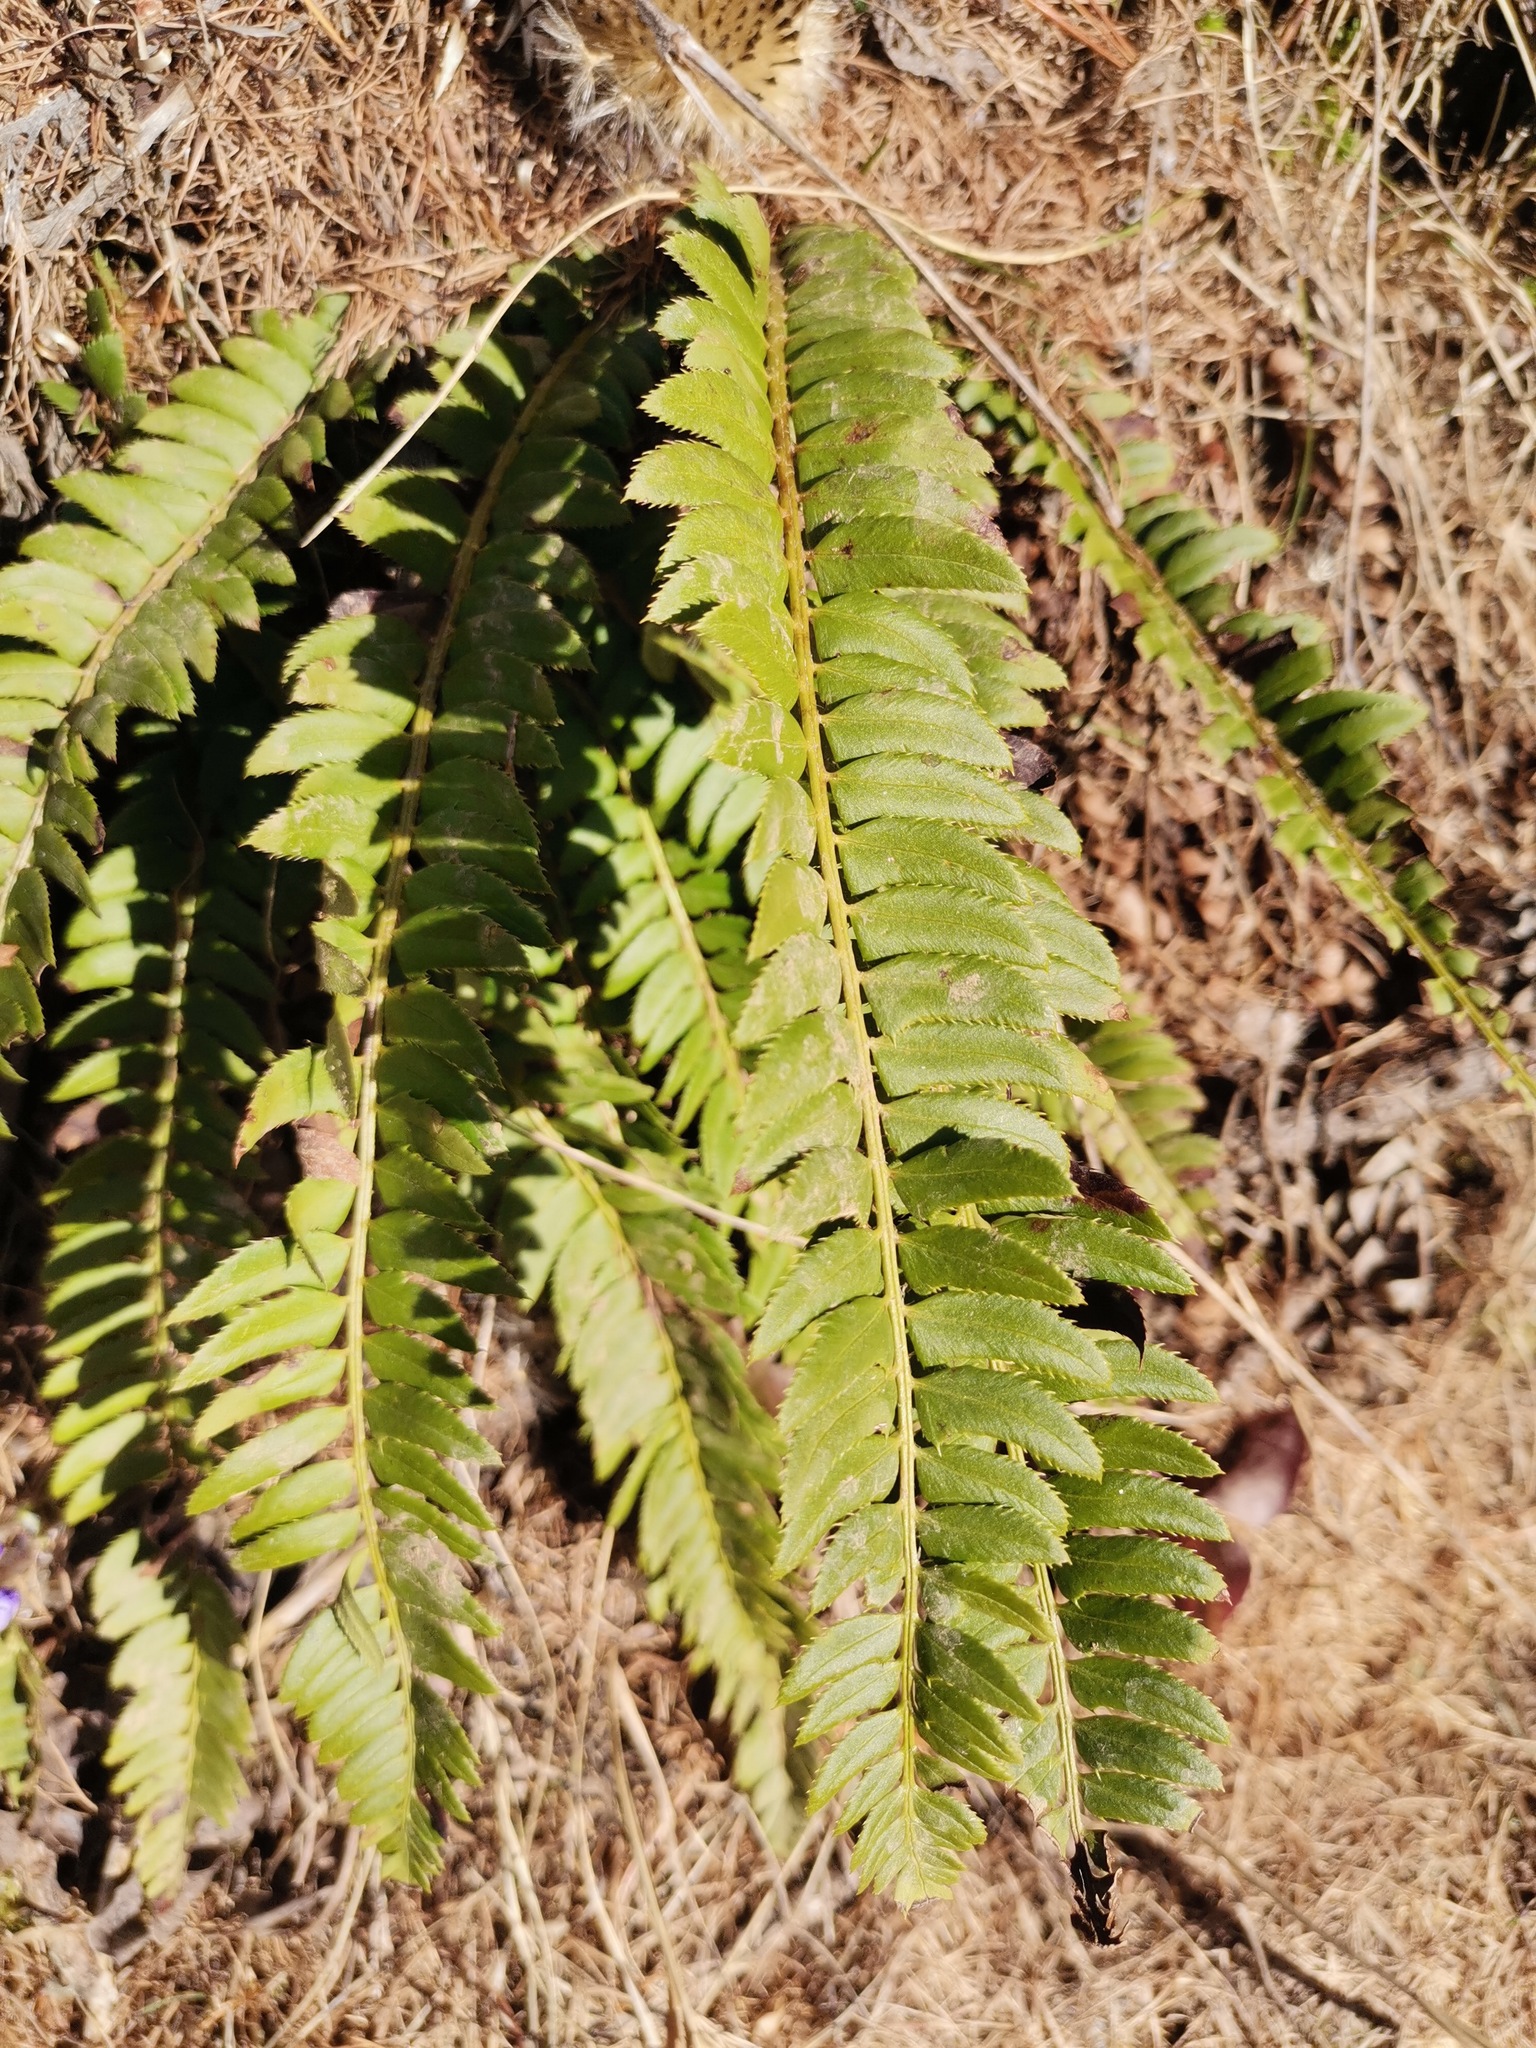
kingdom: Plantae
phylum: Tracheophyta
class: Polypodiopsida
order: Polypodiales
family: Dryopteridaceae
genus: Polystichum
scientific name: Polystichum lonchitis
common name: Holly fern
